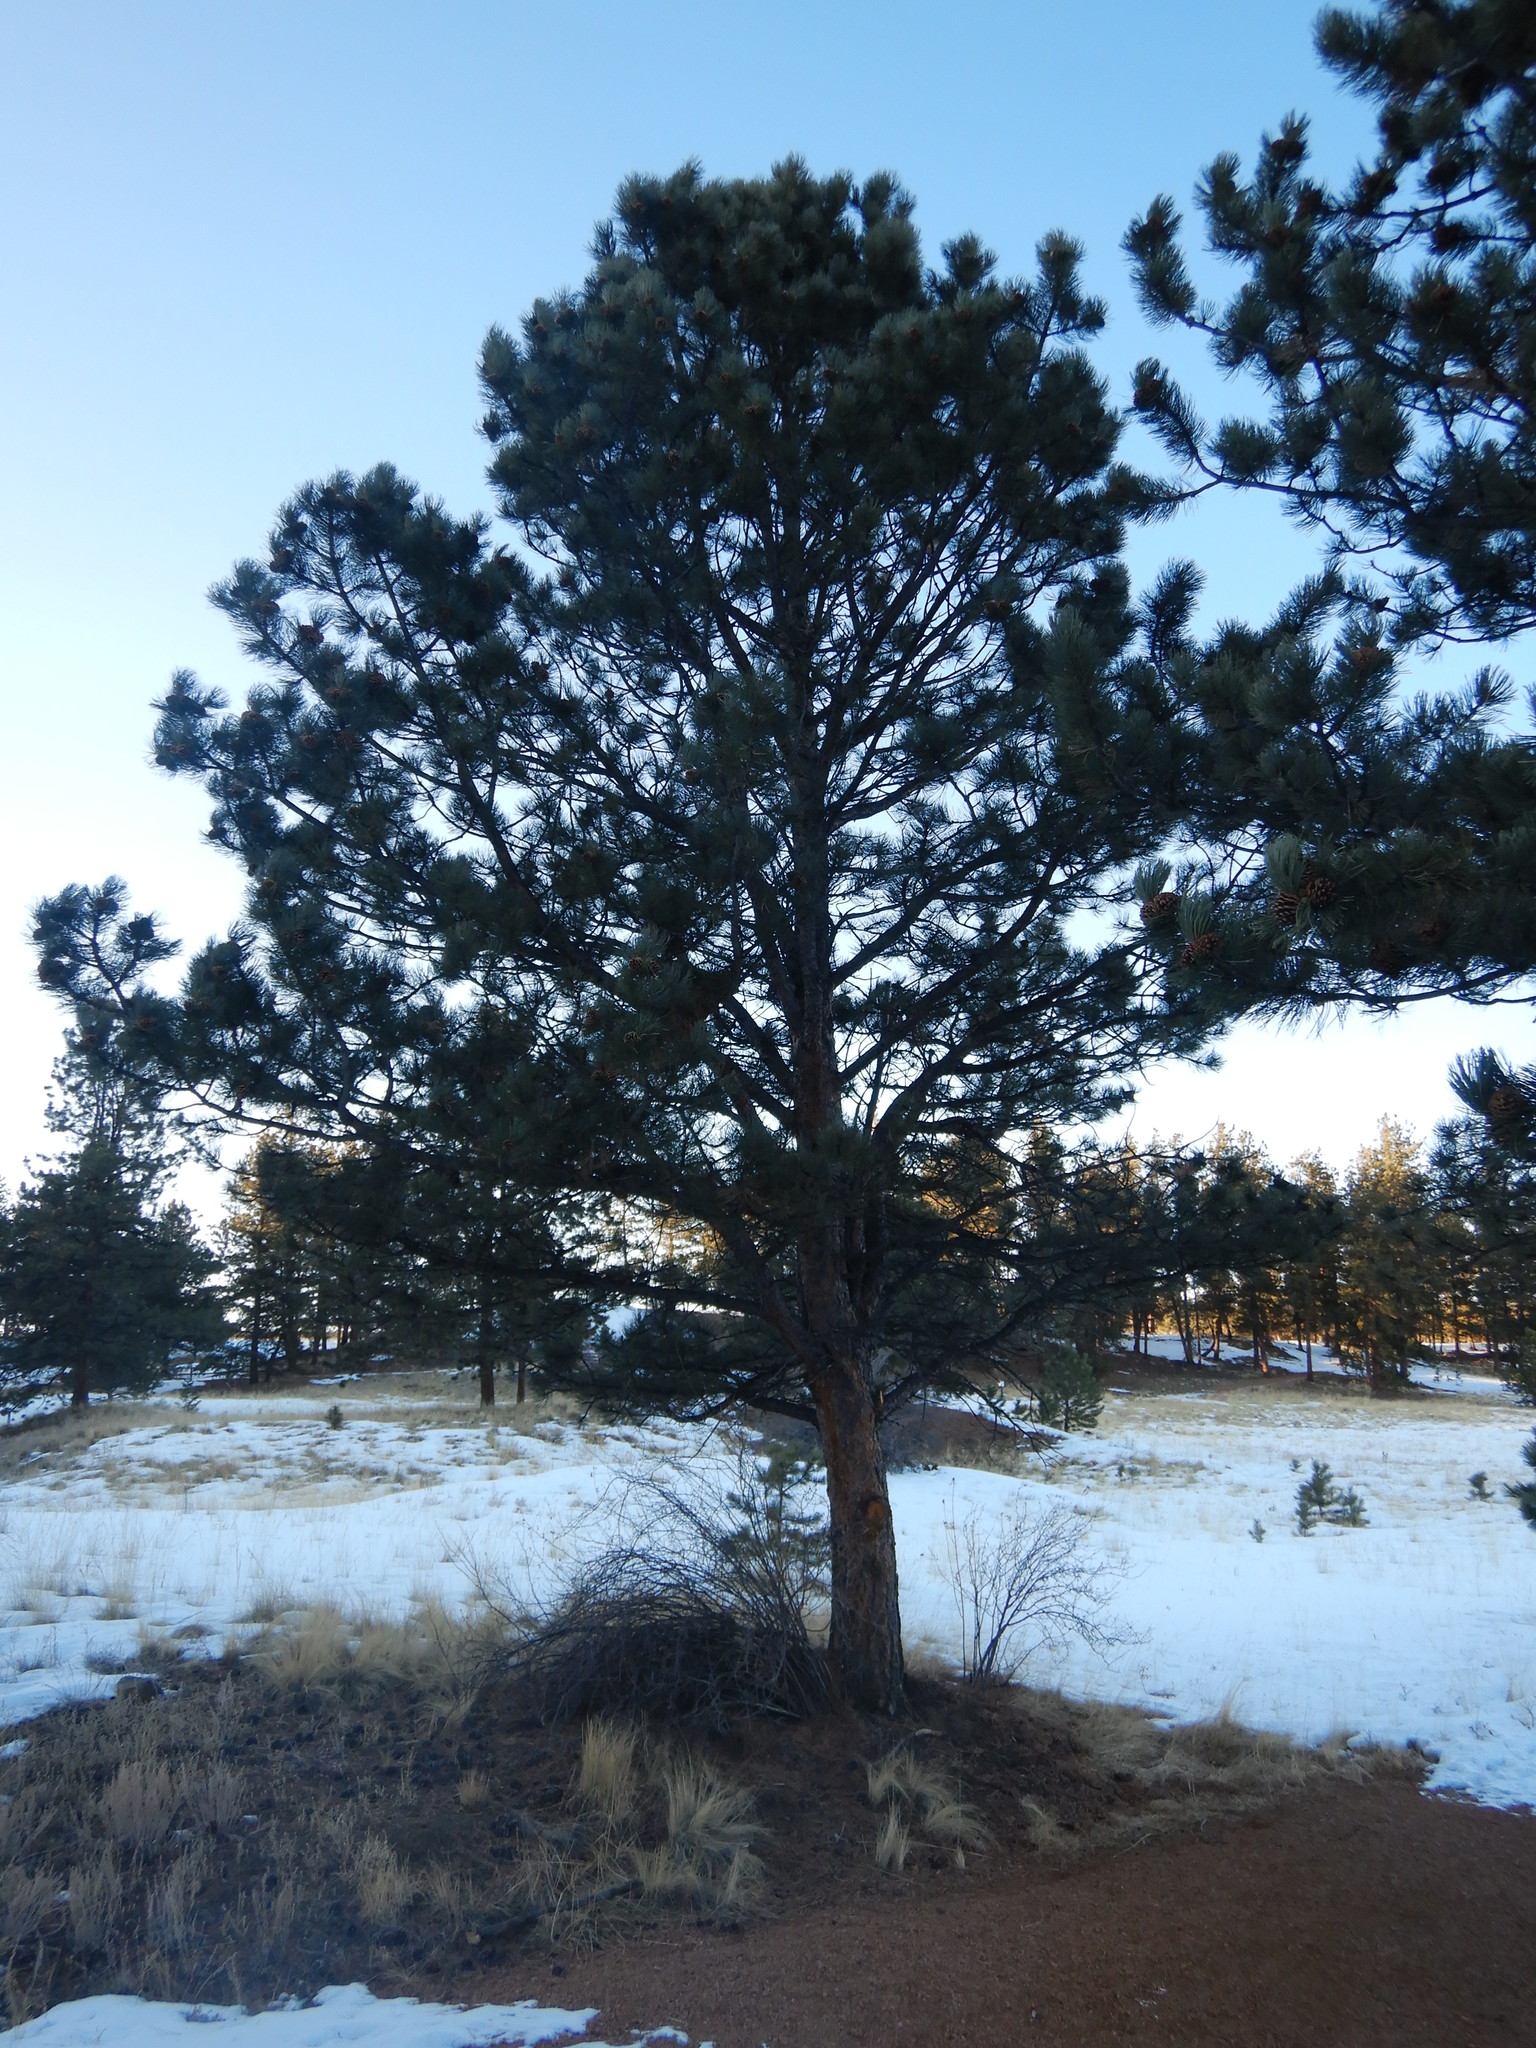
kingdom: Plantae
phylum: Tracheophyta
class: Pinopsida
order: Pinales
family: Pinaceae
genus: Pinus
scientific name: Pinus ponderosa
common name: Western yellow-pine
